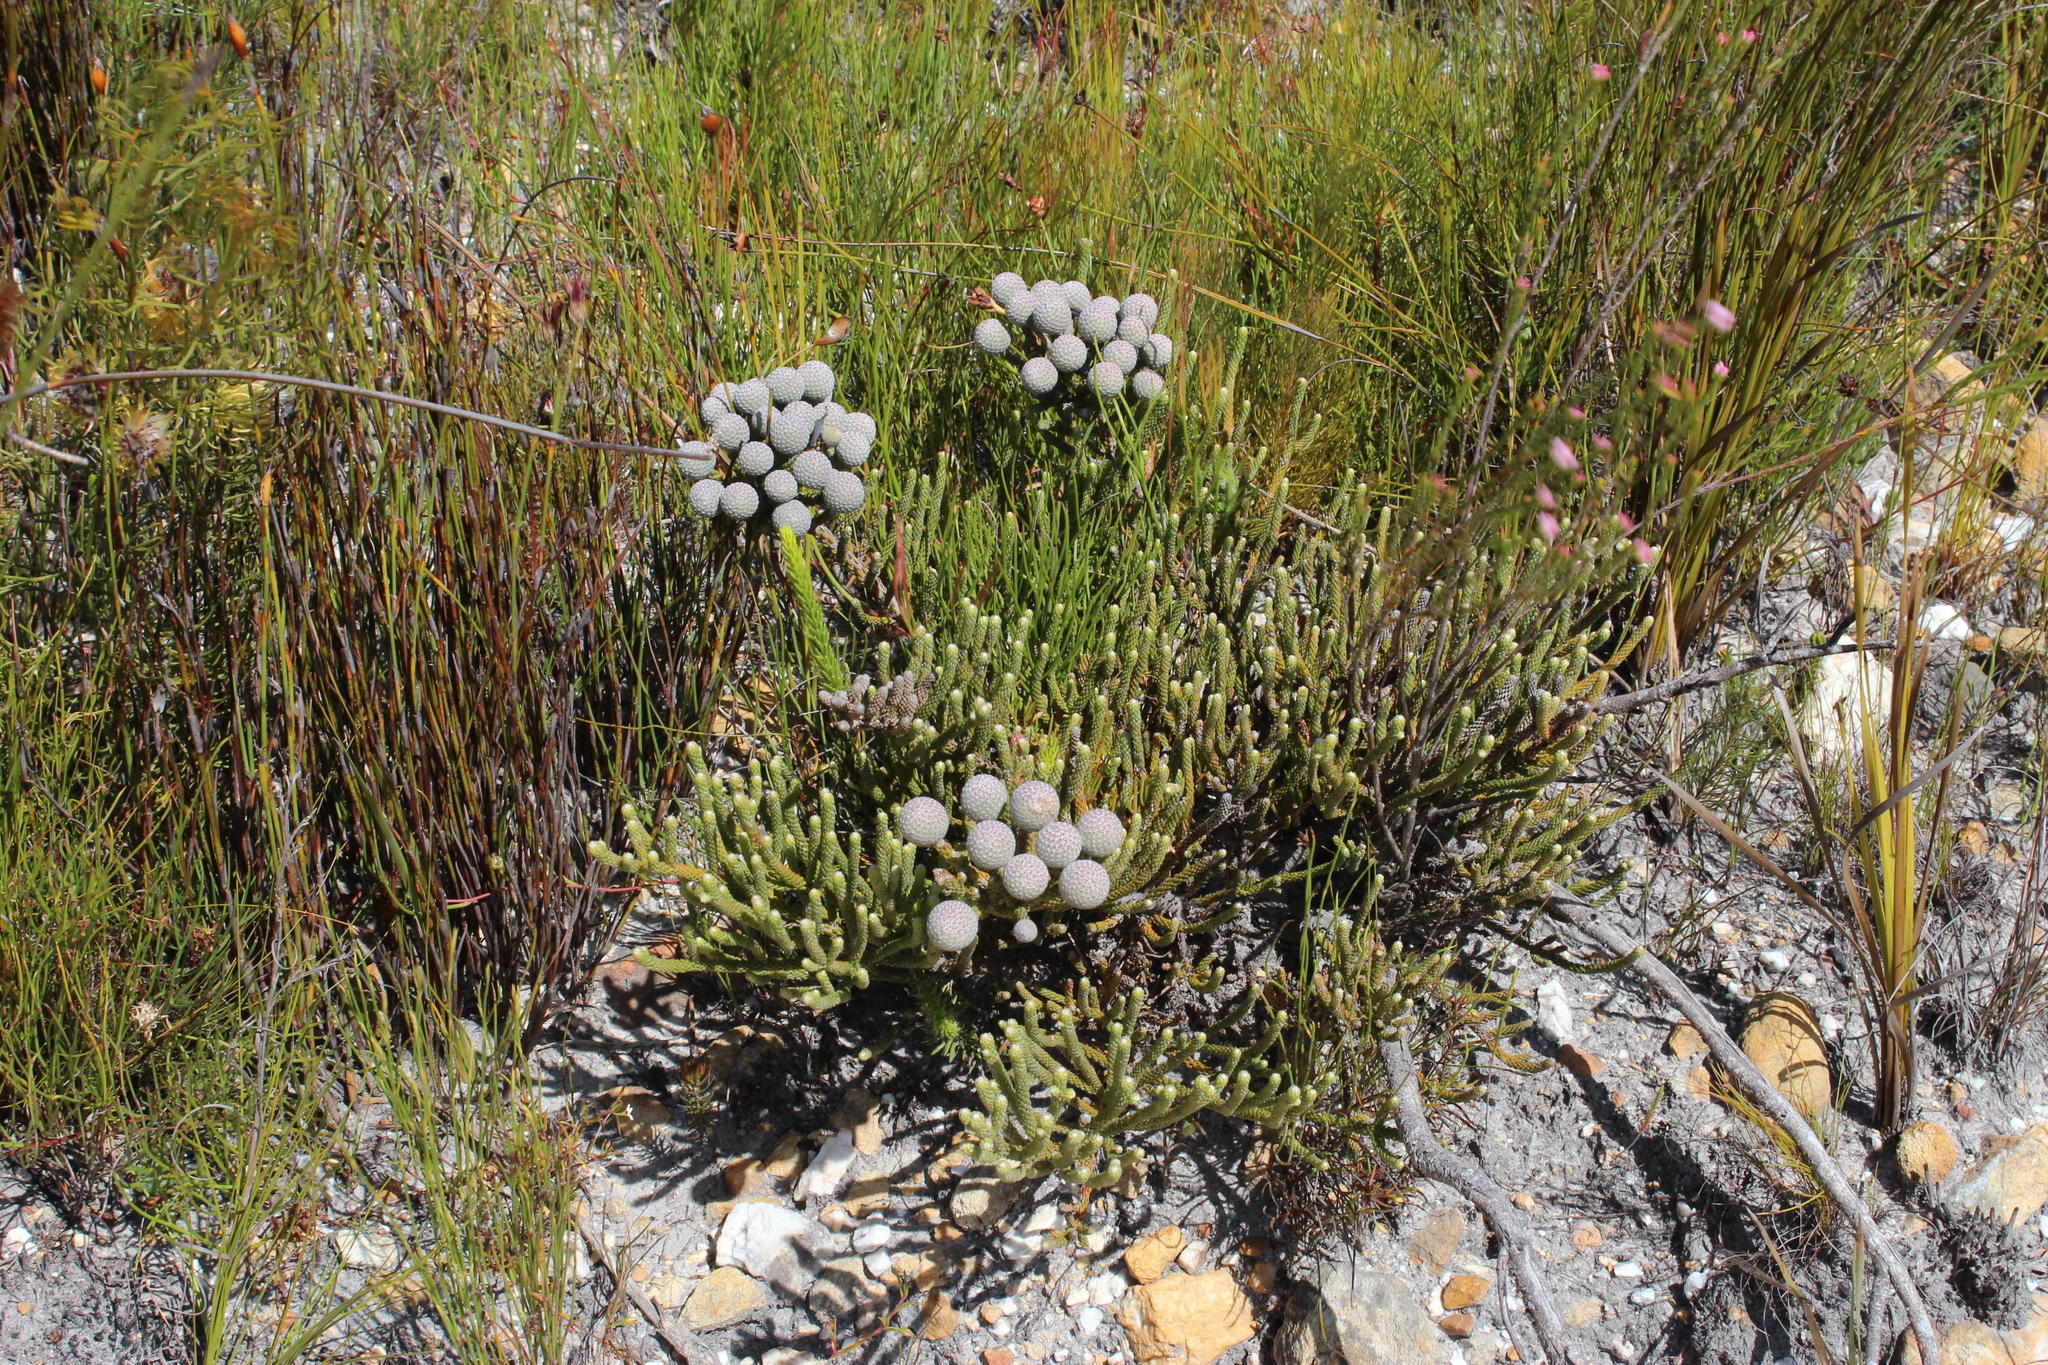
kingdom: Plantae
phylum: Tracheophyta
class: Magnoliopsida
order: Bruniales
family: Bruniaceae
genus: Brunia
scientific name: Brunia laevis
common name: Silver brunia
